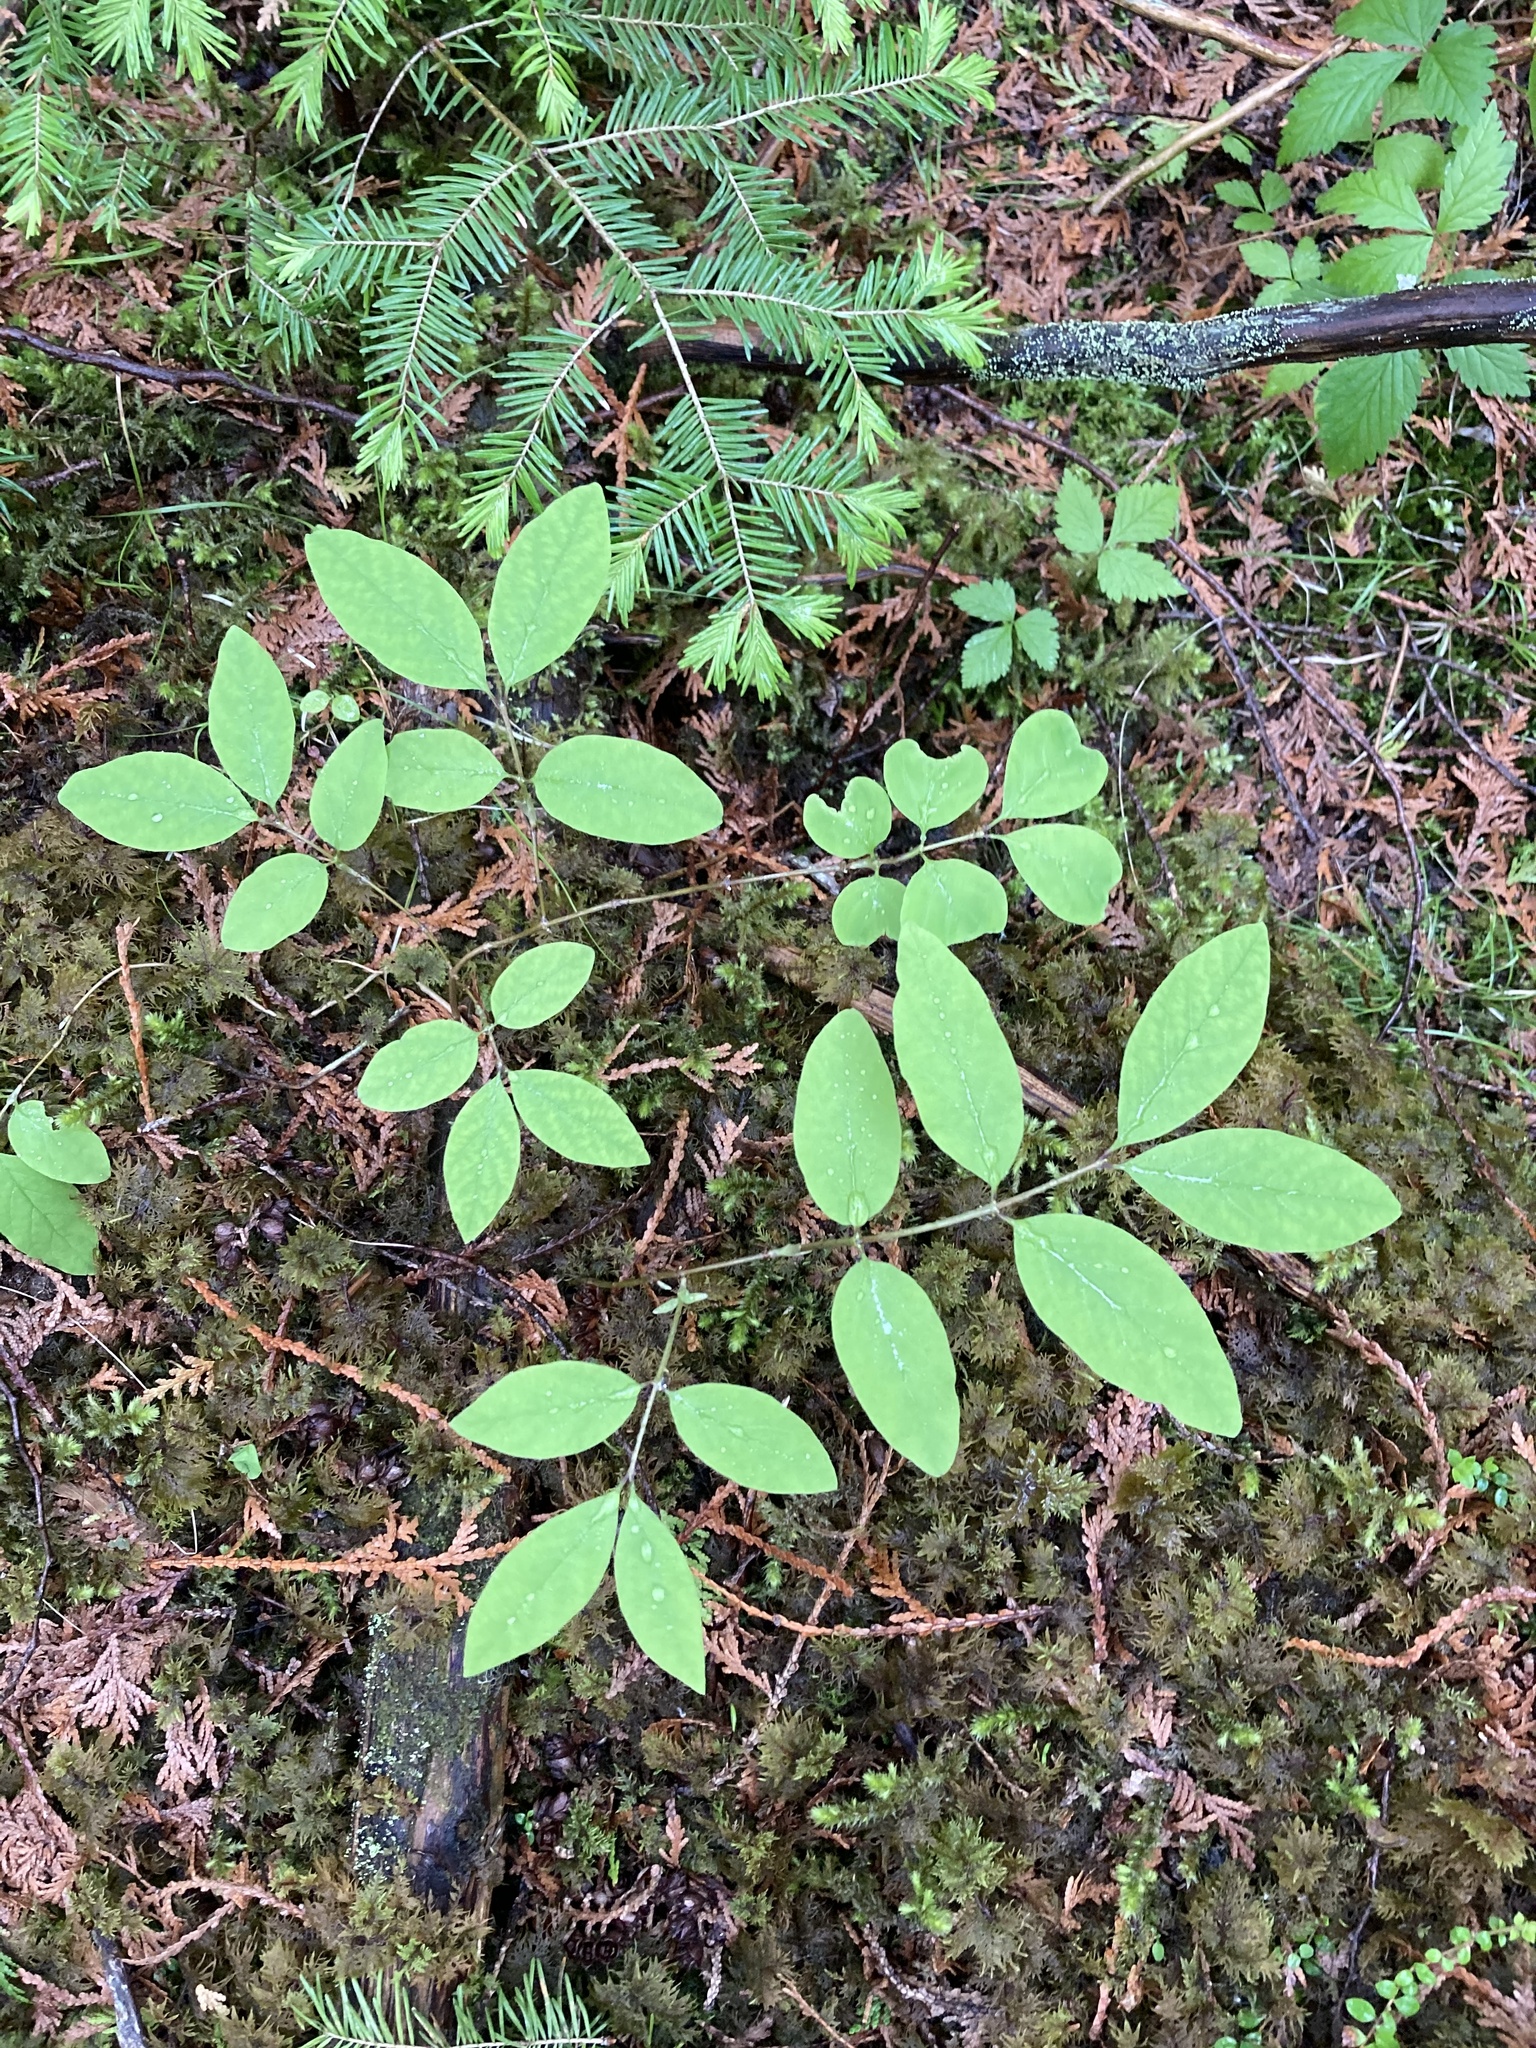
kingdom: Plantae
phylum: Tracheophyta
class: Magnoliopsida
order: Dipsacales
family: Caprifoliaceae
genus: Lonicera
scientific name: Lonicera canadensis
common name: American fly-honeysuckle
